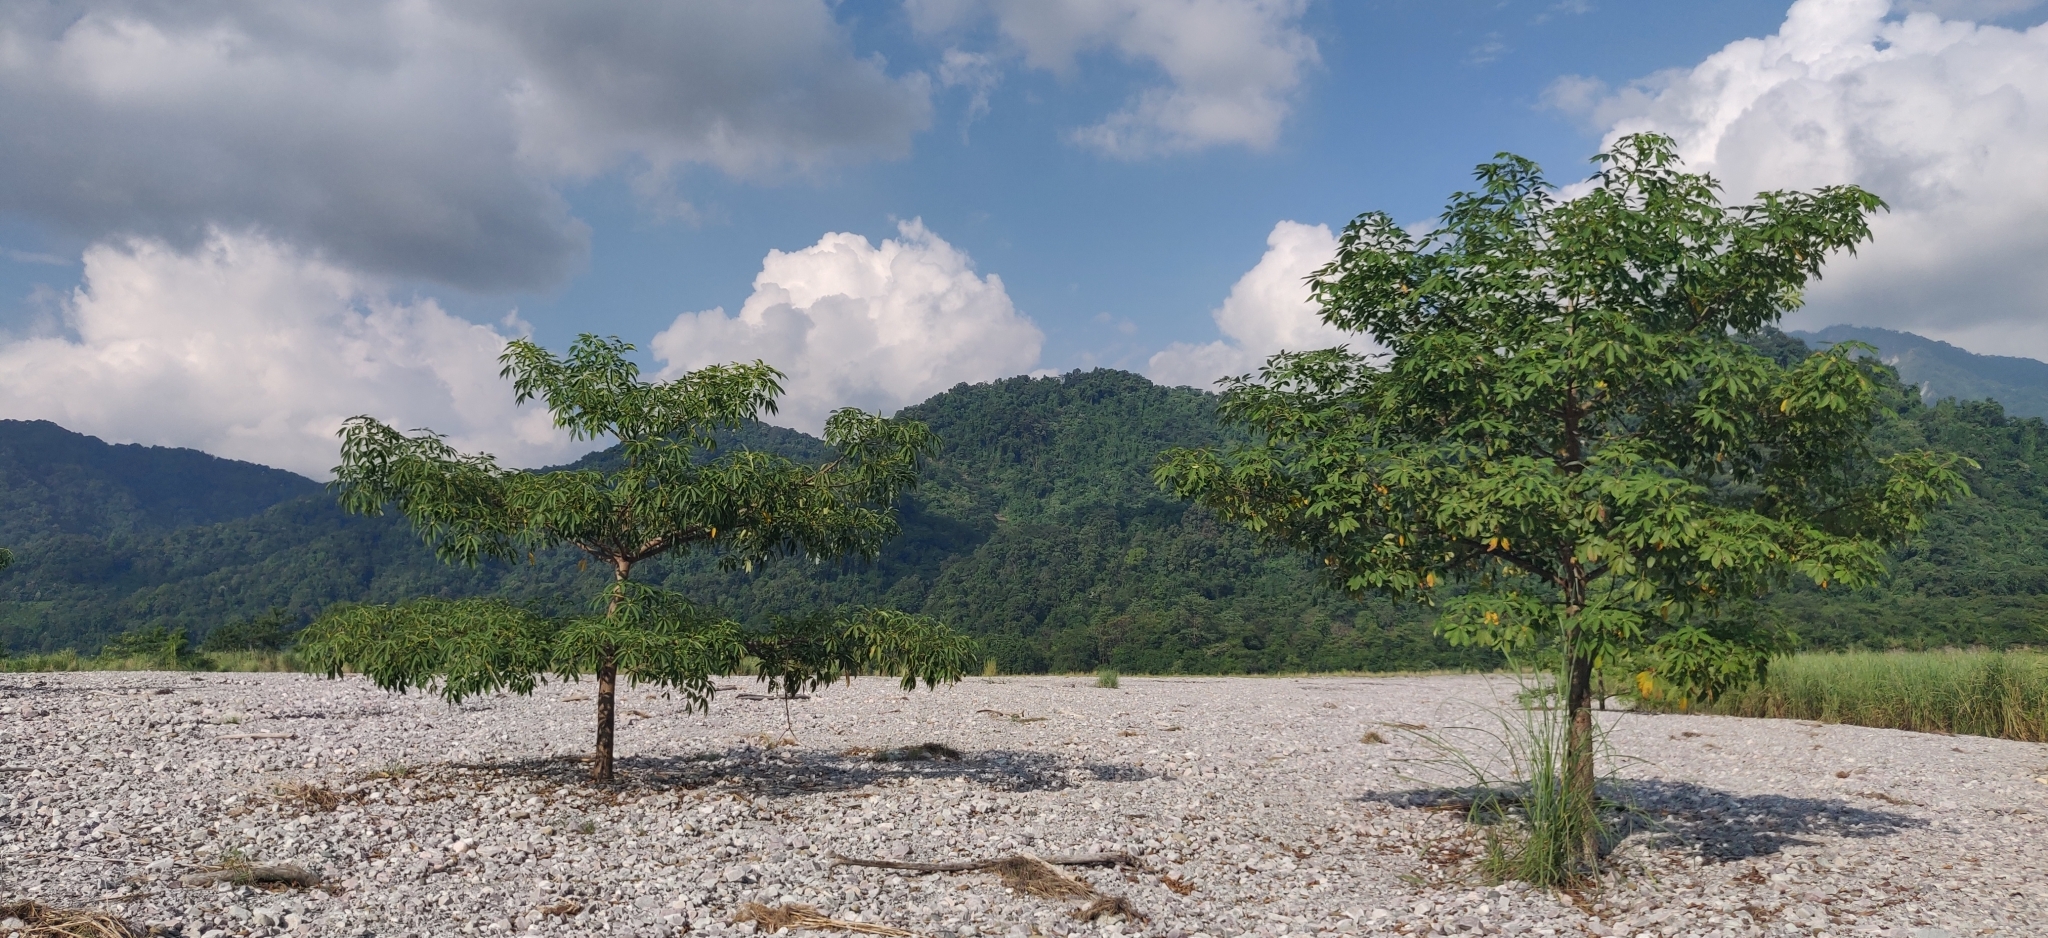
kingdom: Plantae
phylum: Tracheophyta
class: Magnoliopsida
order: Malvales
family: Malvaceae
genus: Bombax
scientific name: Bombax ceiba
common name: Northern-cottonwood
